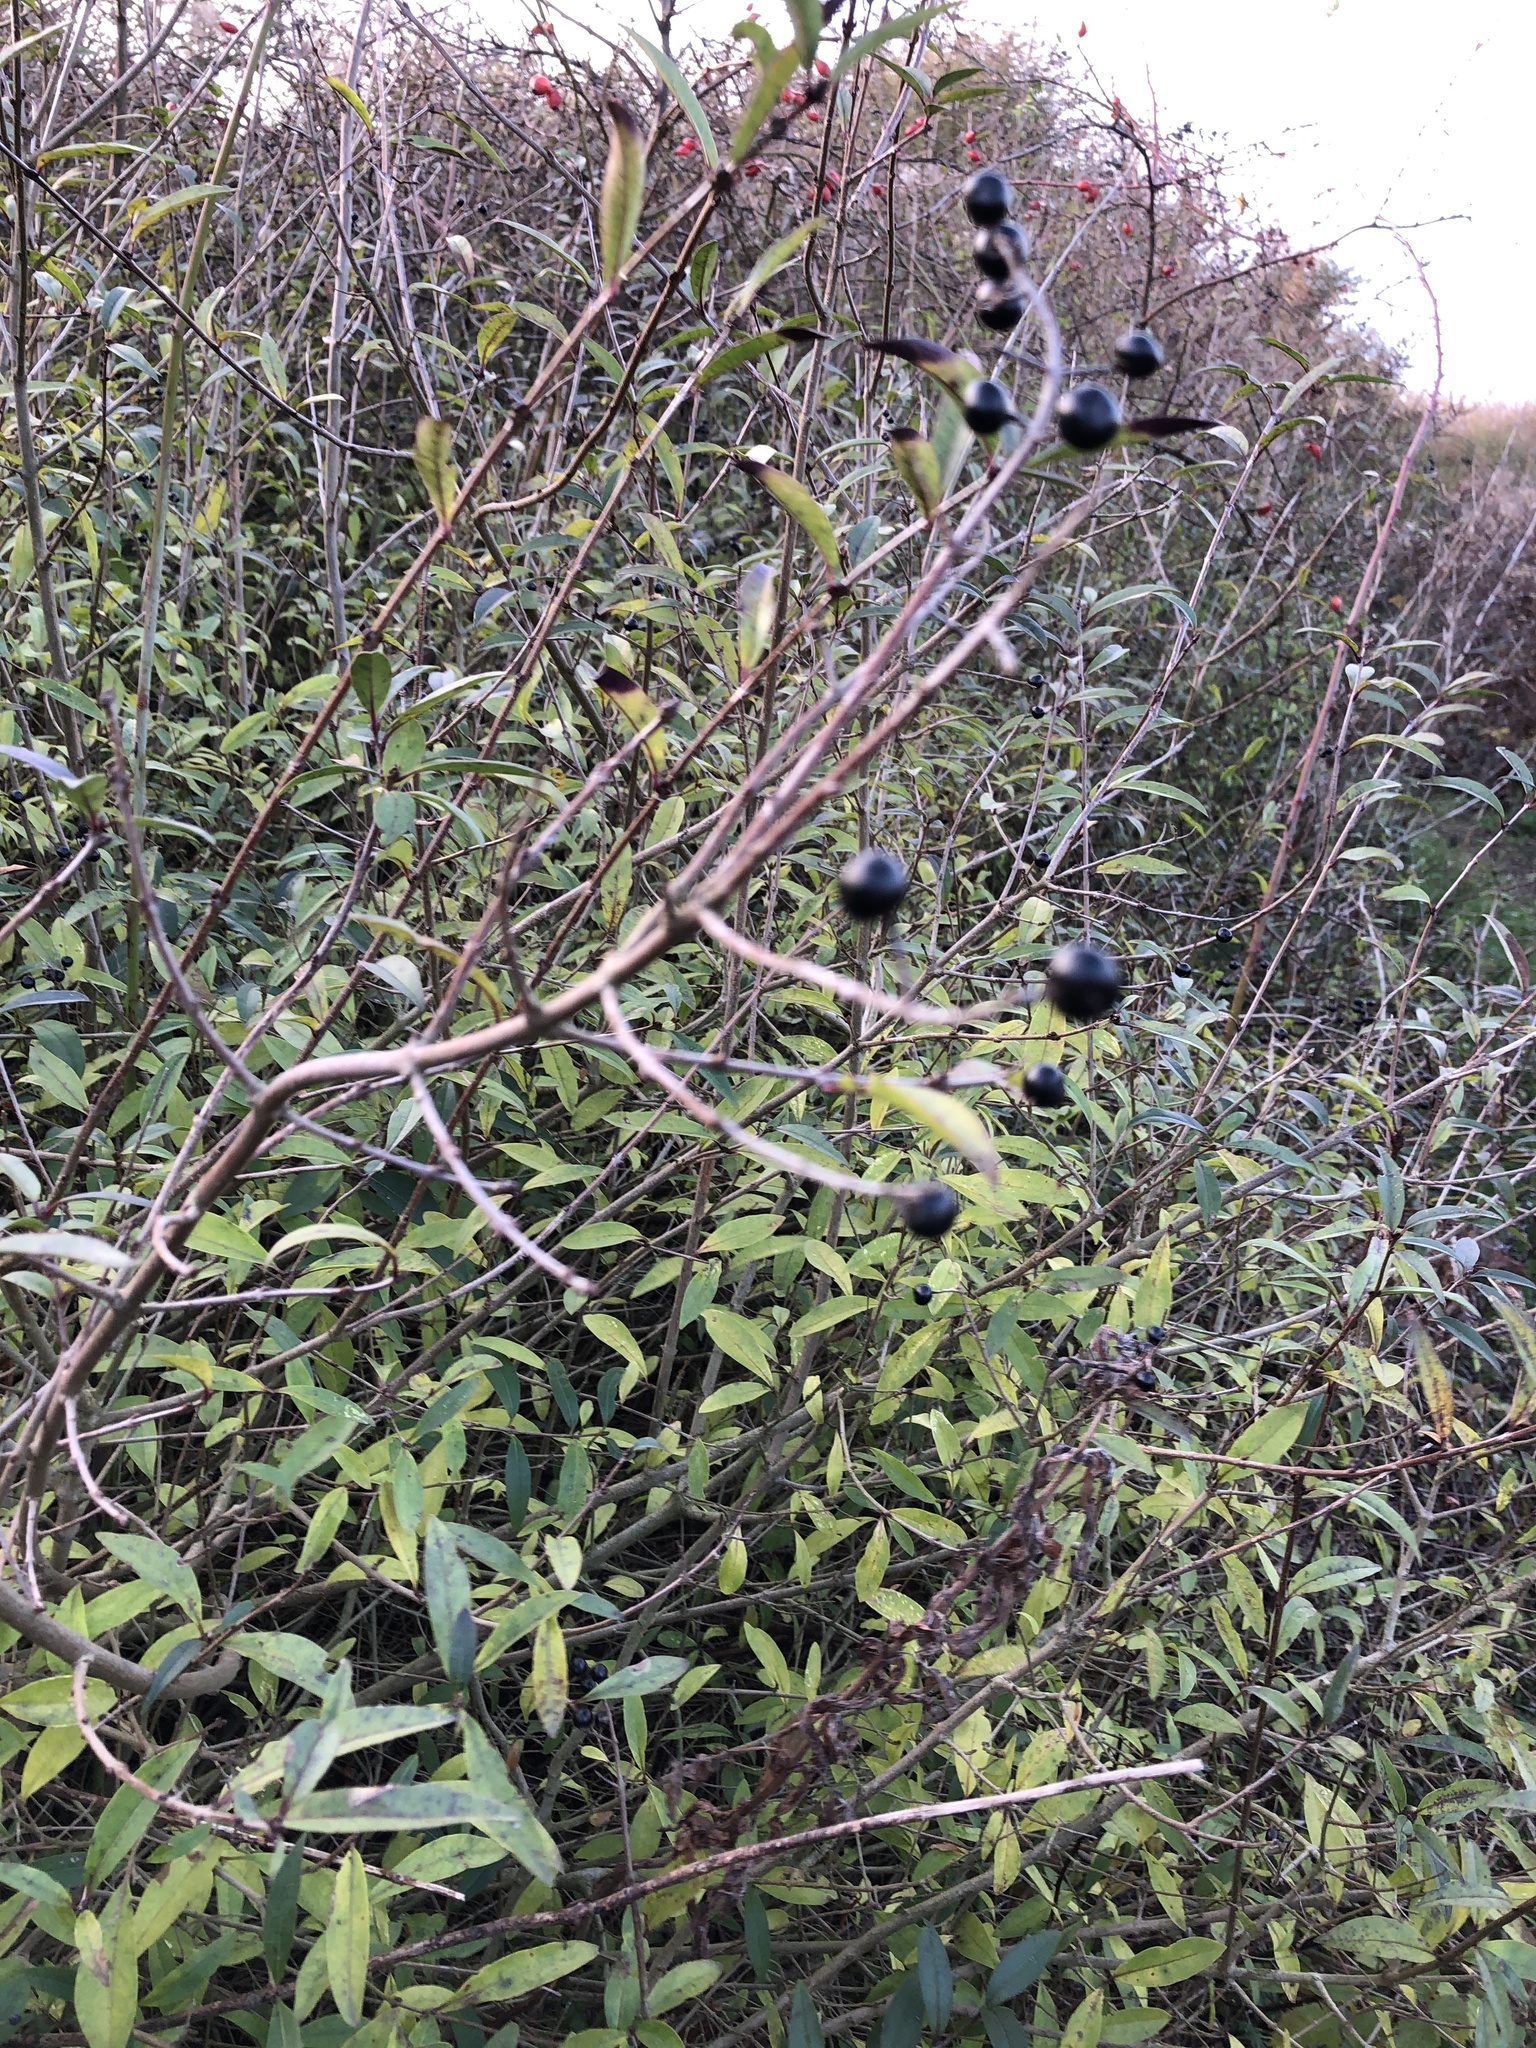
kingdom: Plantae
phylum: Tracheophyta
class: Magnoliopsida
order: Lamiales
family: Oleaceae
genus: Ligustrum
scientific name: Ligustrum vulgare
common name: Wild privet
